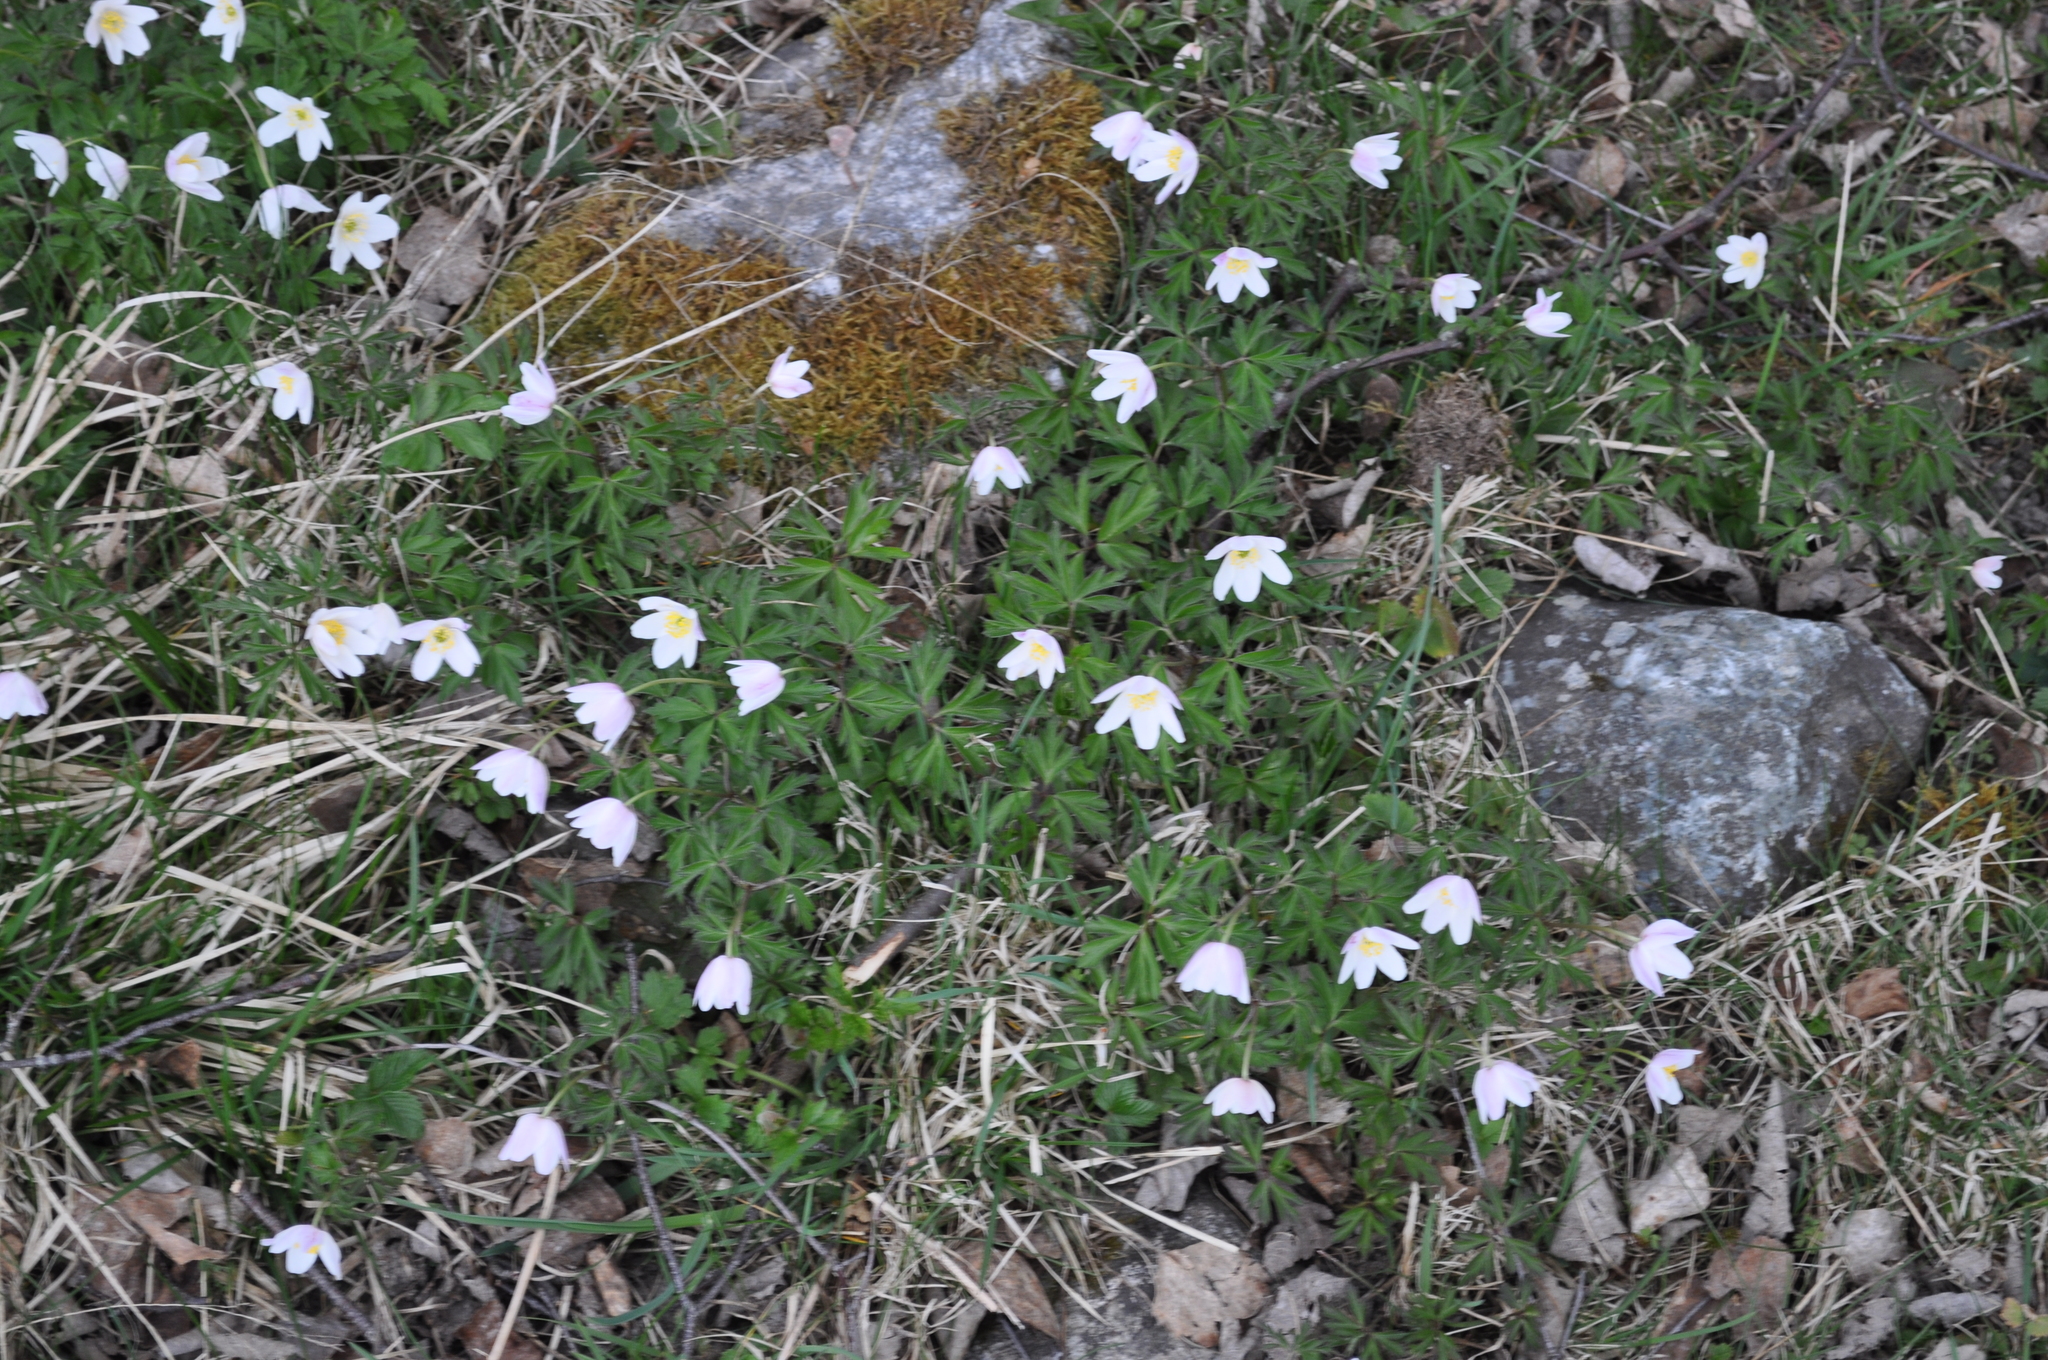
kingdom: Plantae
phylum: Tracheophyta
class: Magnoliopsida
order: Ranunculales
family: Ranunculaceae
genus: Anemone
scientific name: Anemone nemorosa
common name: Wood anemone
